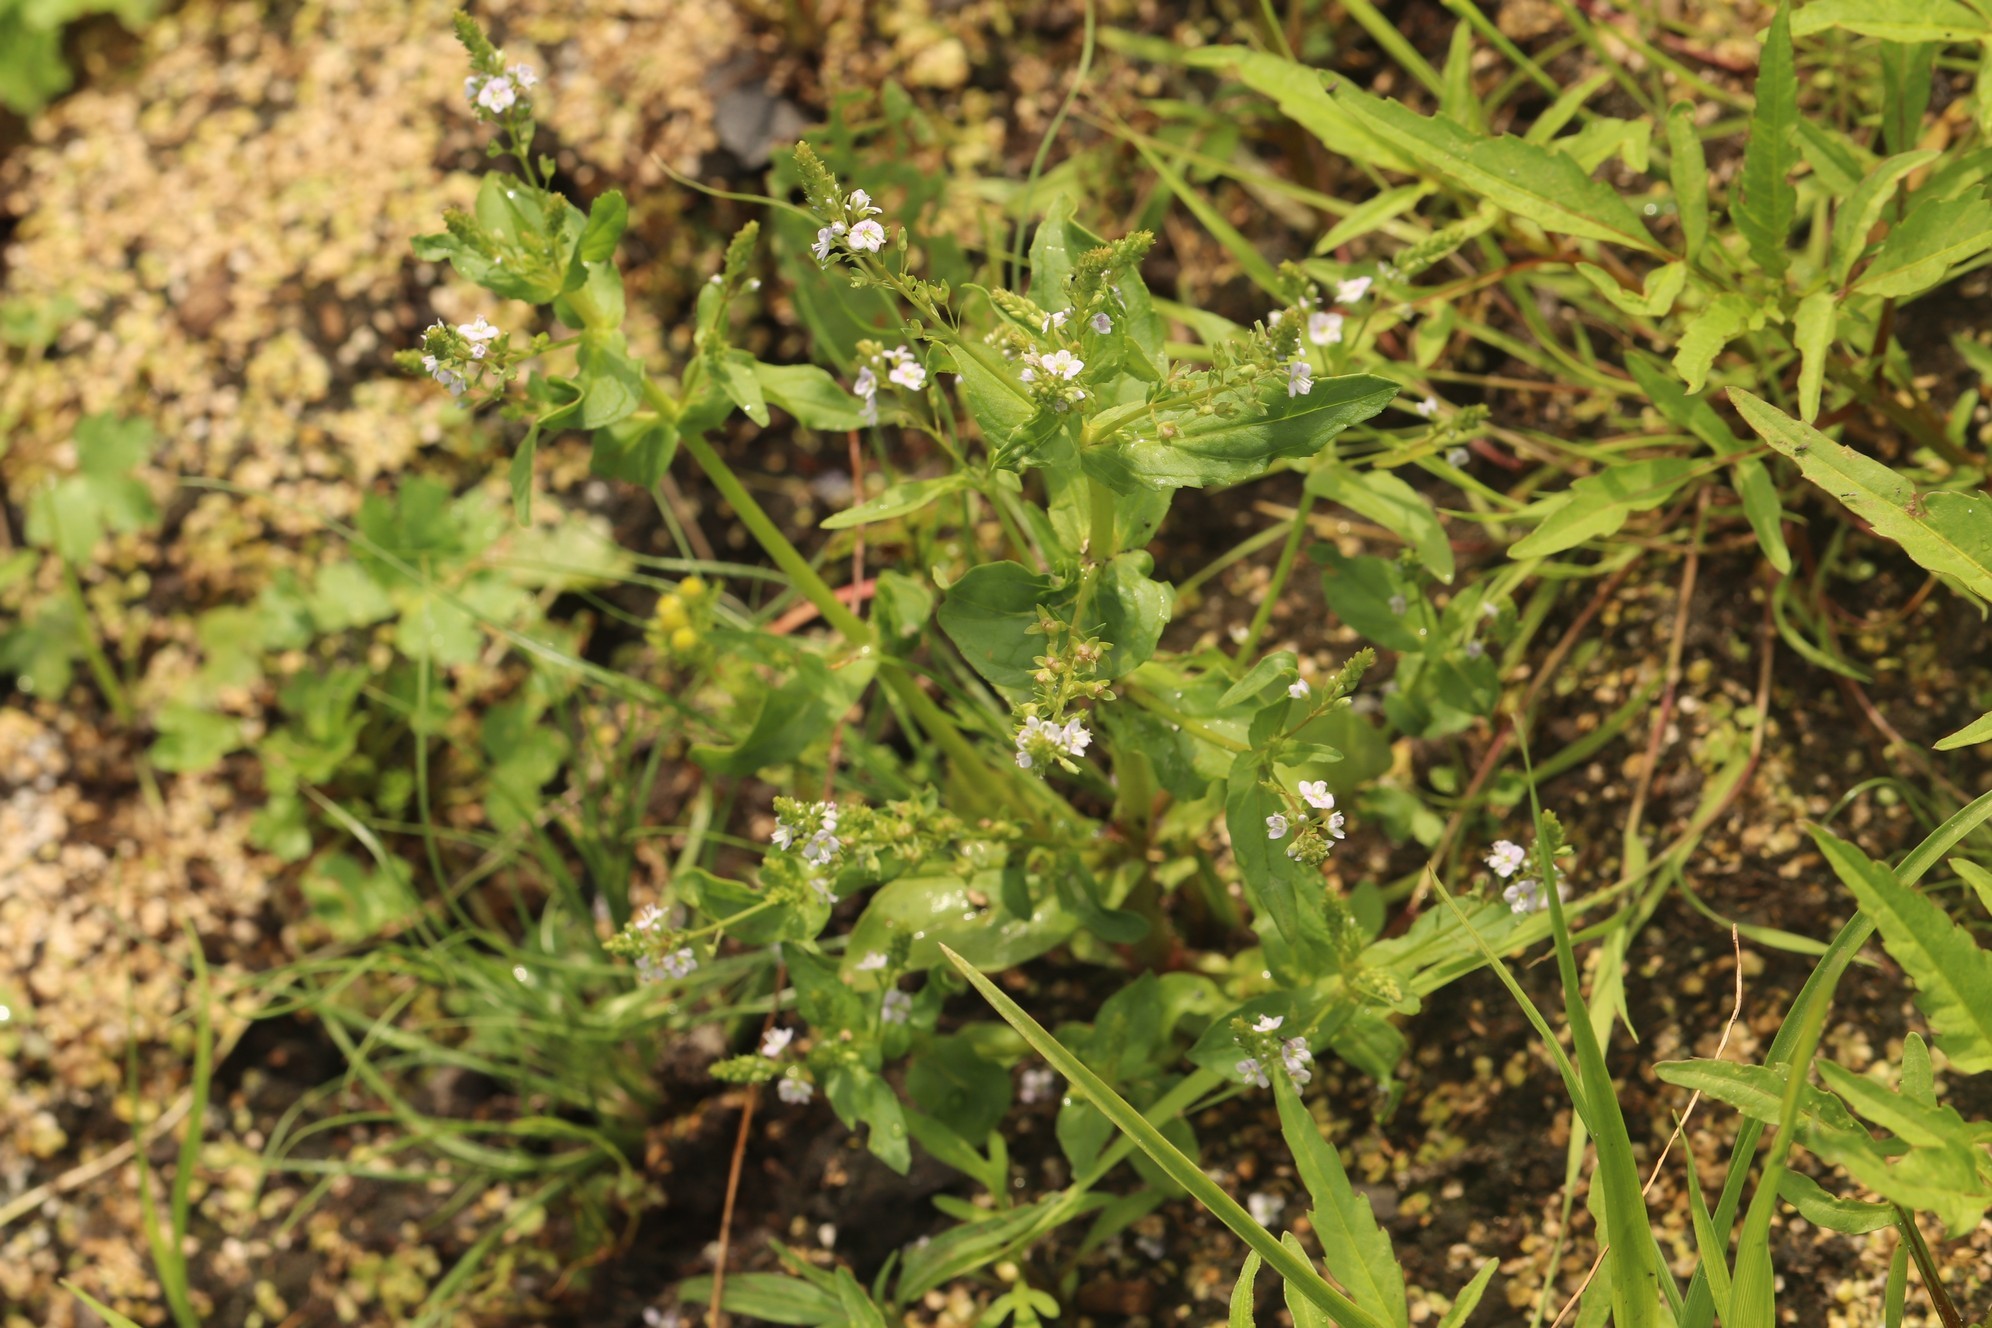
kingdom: Plantae
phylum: Tracheophyta
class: Magnoliopsida
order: Lamiales
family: Plantaginaceae
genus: Veronica
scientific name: Veronica anagallis-aquatica
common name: Water speedwell
